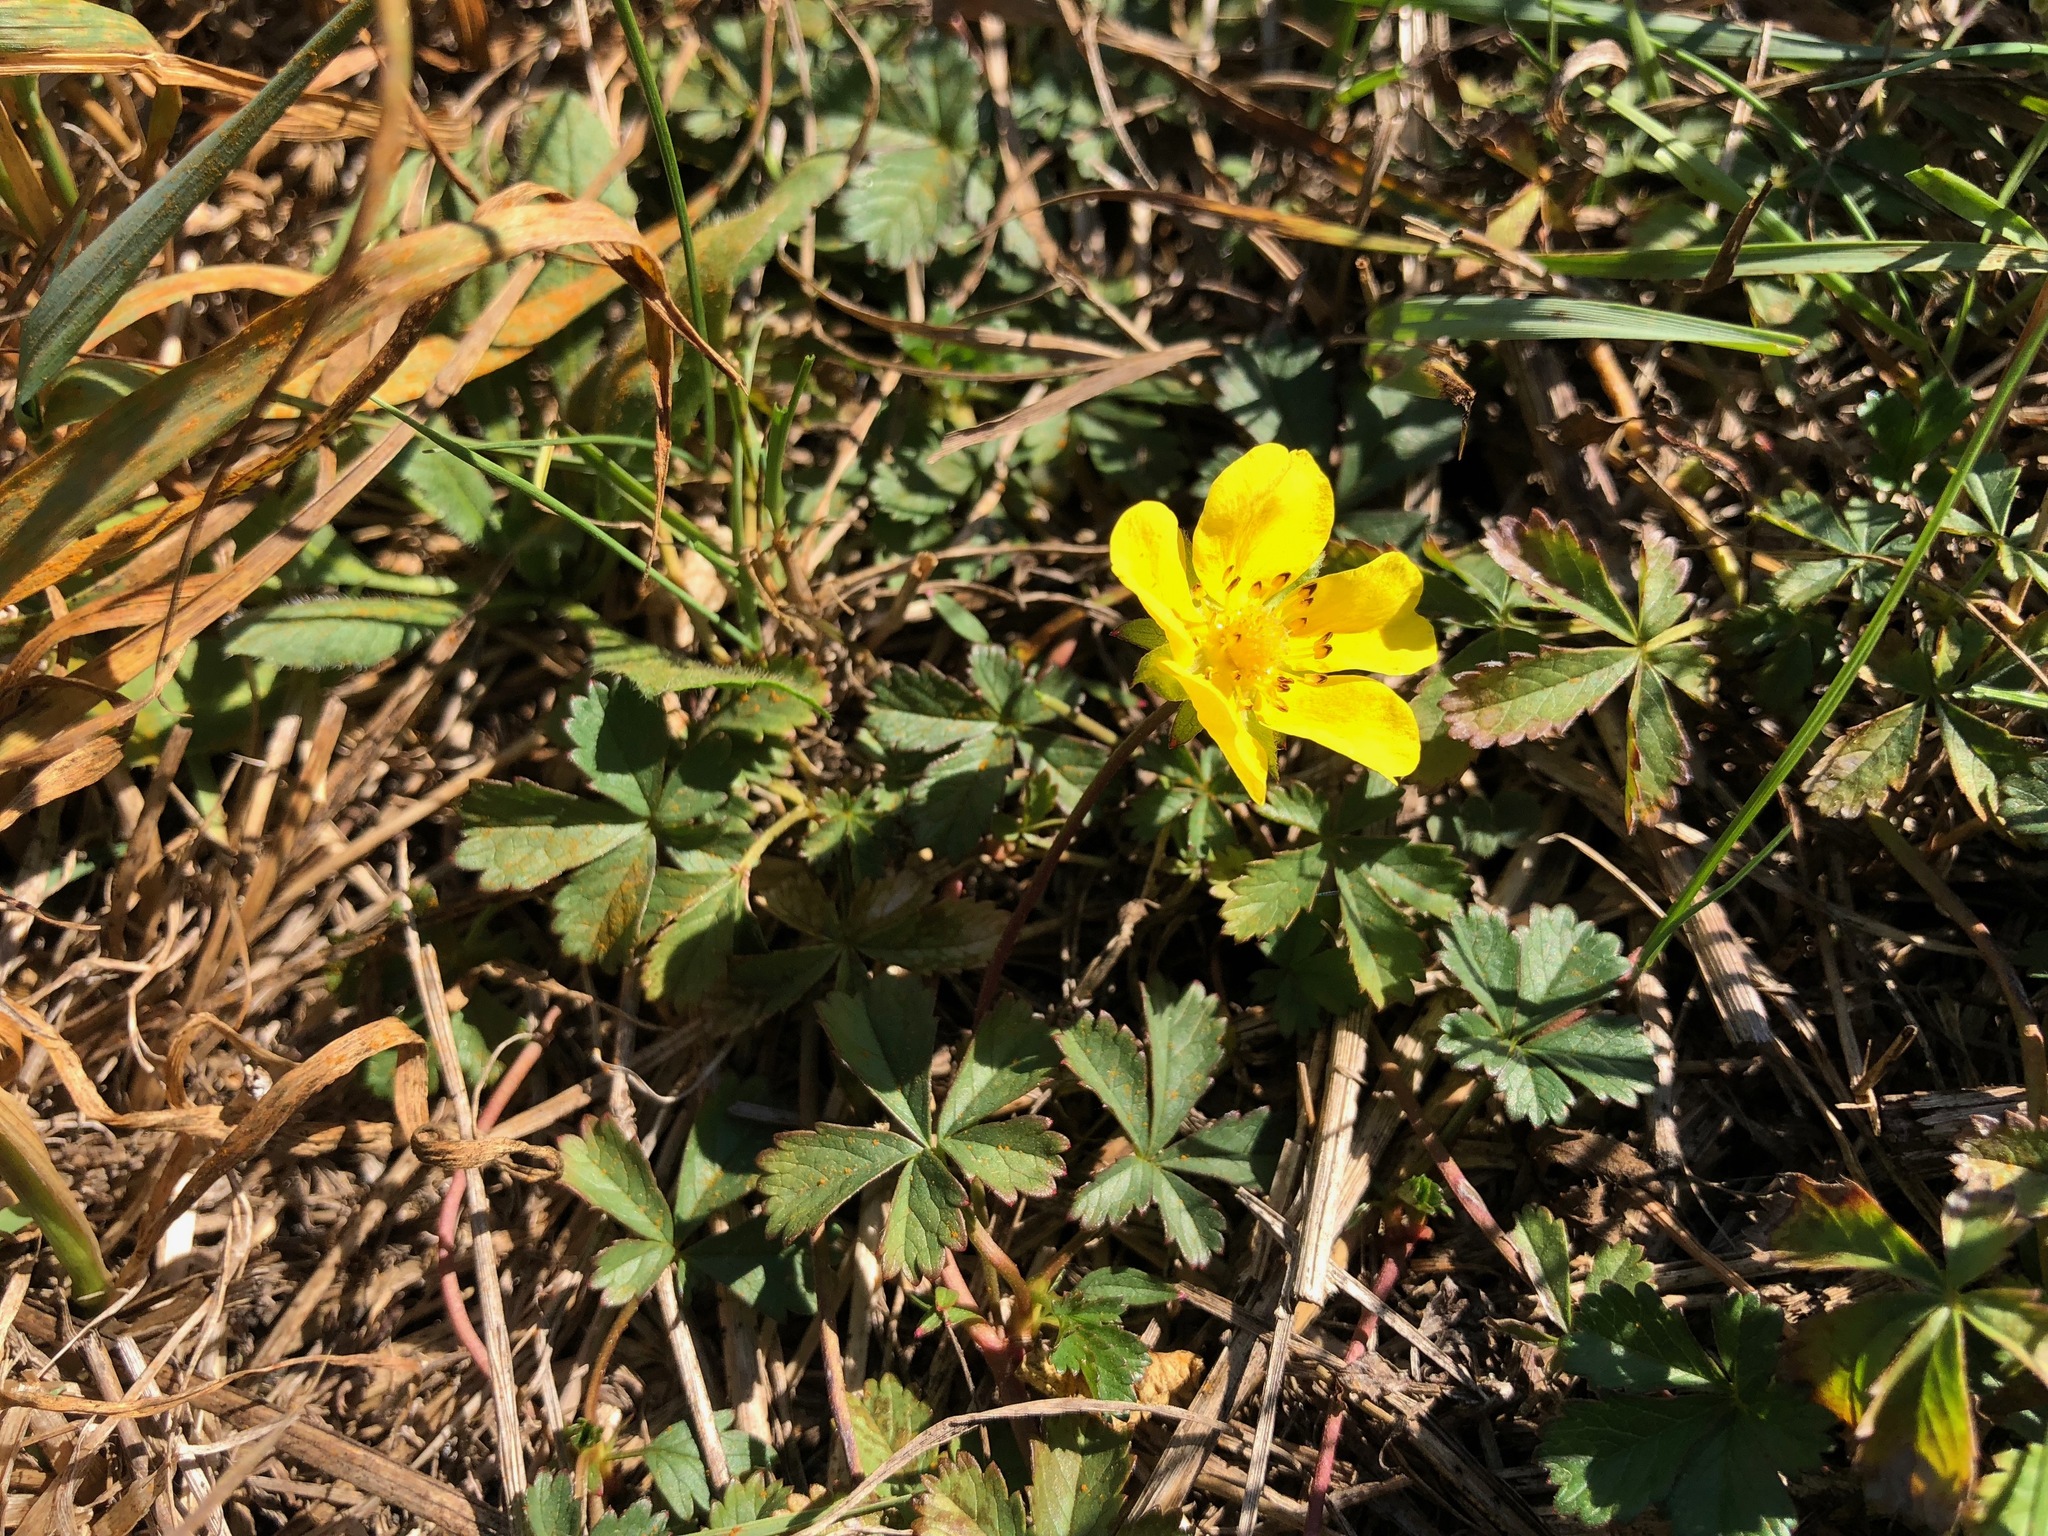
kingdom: Plantae
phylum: Tracheophyta
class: Magnoliopsida
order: Rosales
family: Rosaceae
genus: Potentilla
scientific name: Potentilla verna
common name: Spring cinquefoil
